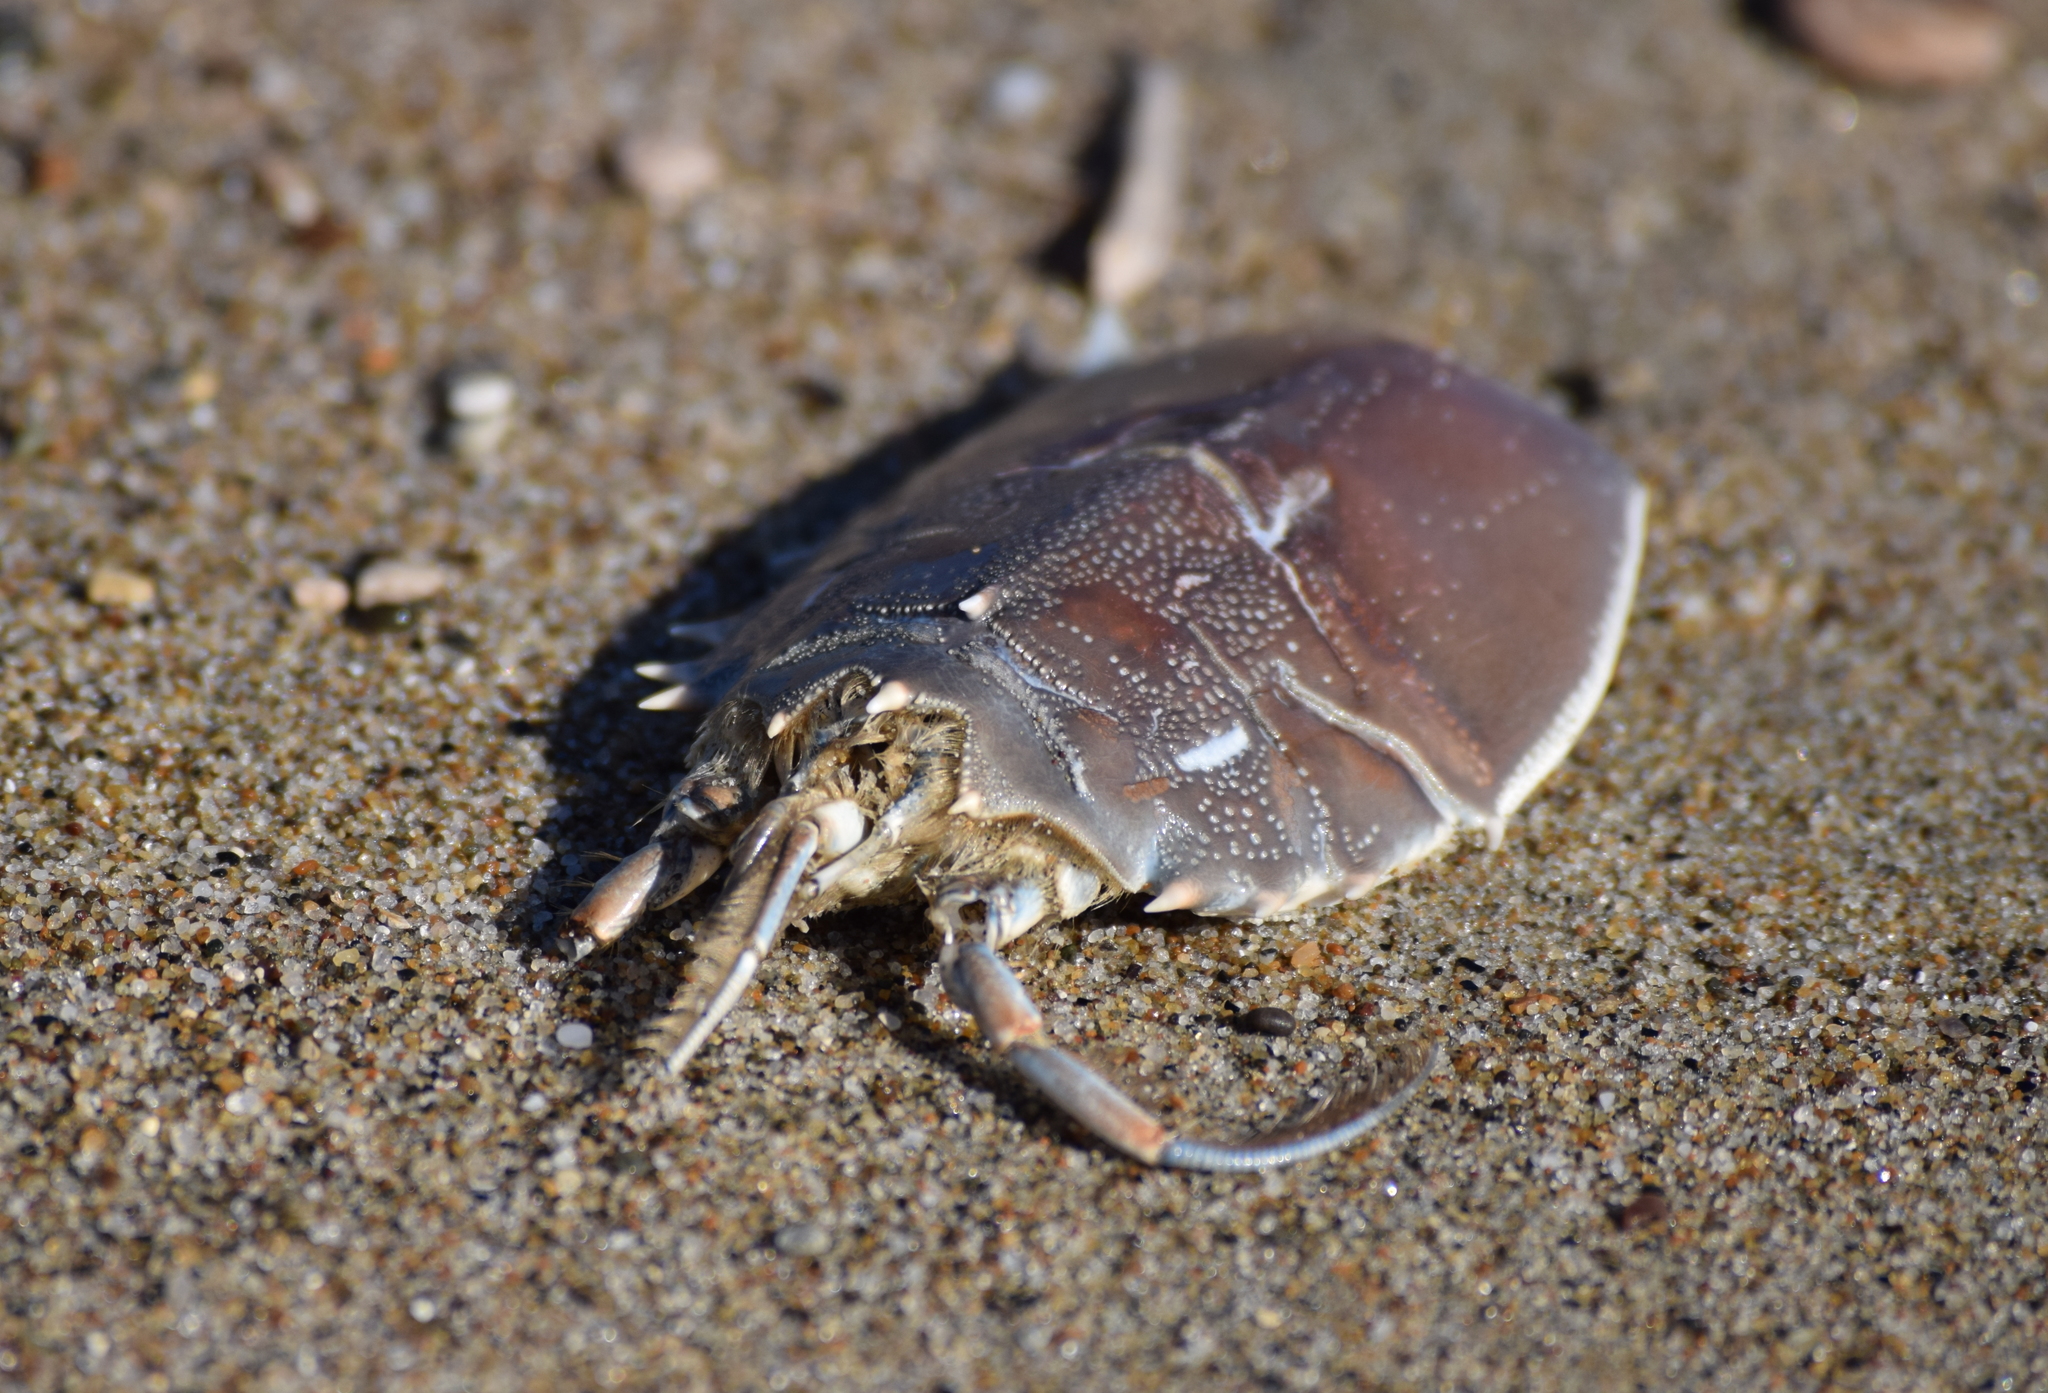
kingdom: Animalia
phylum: Arthropoda
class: Malacostraca
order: Decapoda
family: Blepharipodidae
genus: Blepharipoda
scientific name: Blepharipoda occidentalis
